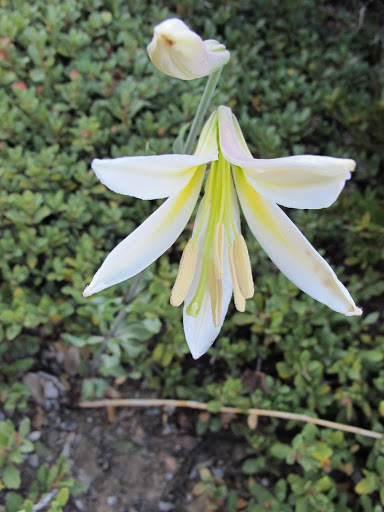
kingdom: Plantae
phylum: Tracheophyta
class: Liliopsida
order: Liliales
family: Liliaceae
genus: Lilium
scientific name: Lilium washingtonianum
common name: Washington lily
